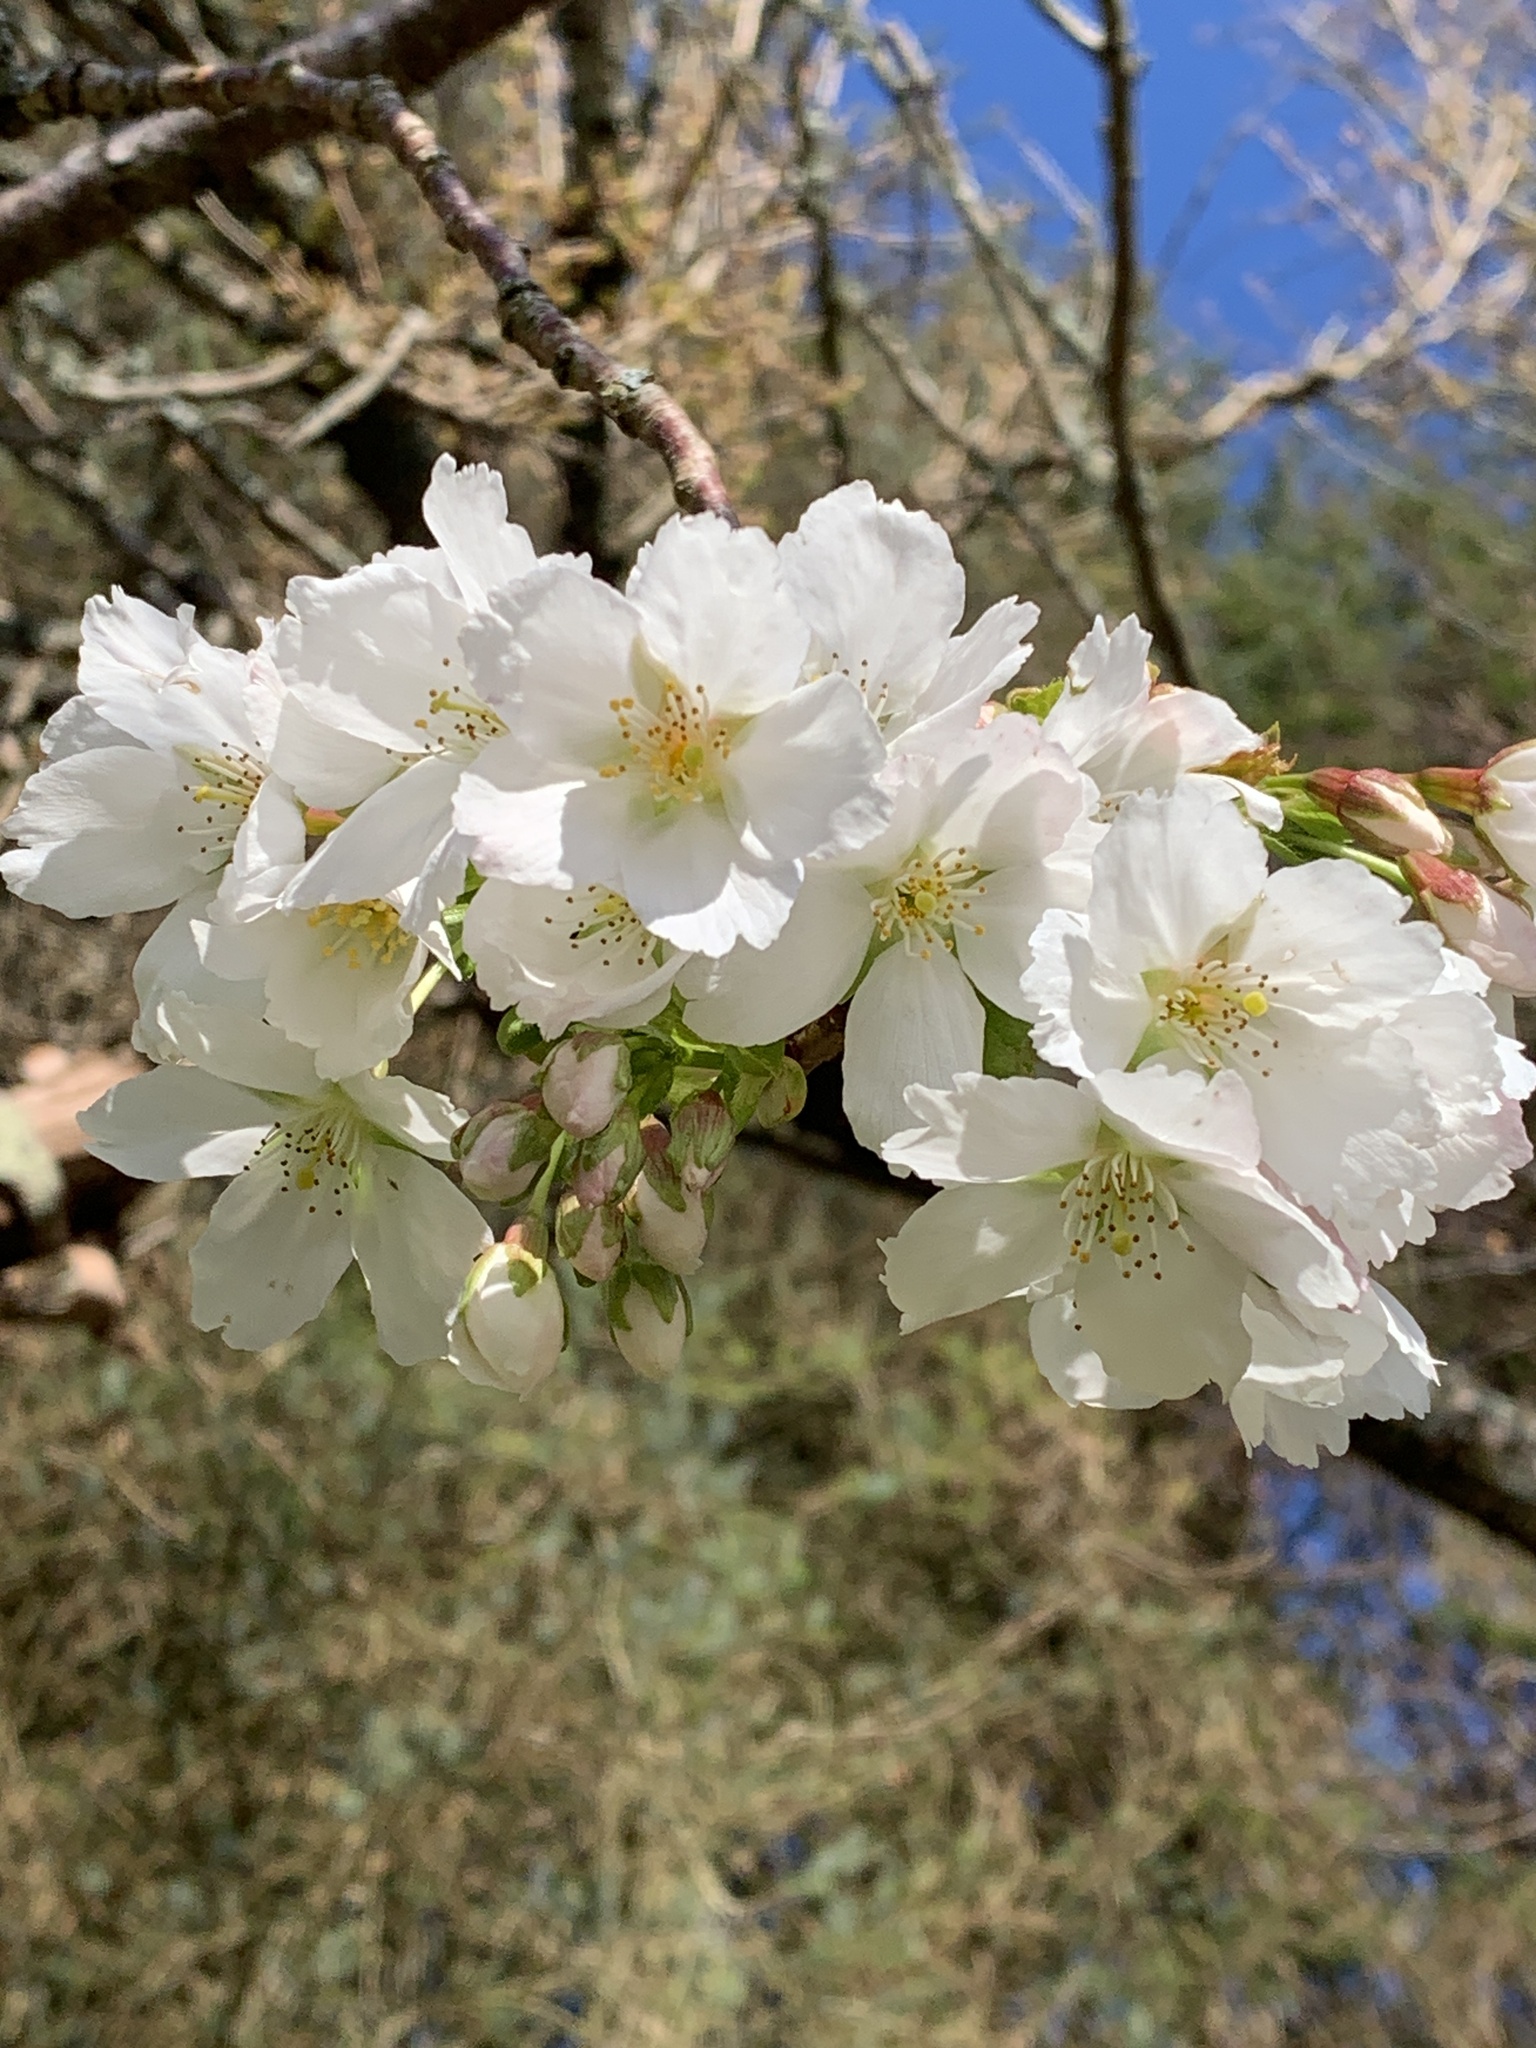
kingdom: Plantae
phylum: Tracheophyta
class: Magnoliopsida
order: Rosales
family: Rosaceae
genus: Prunus
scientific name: Prunus serrulata
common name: Japanese cherry
